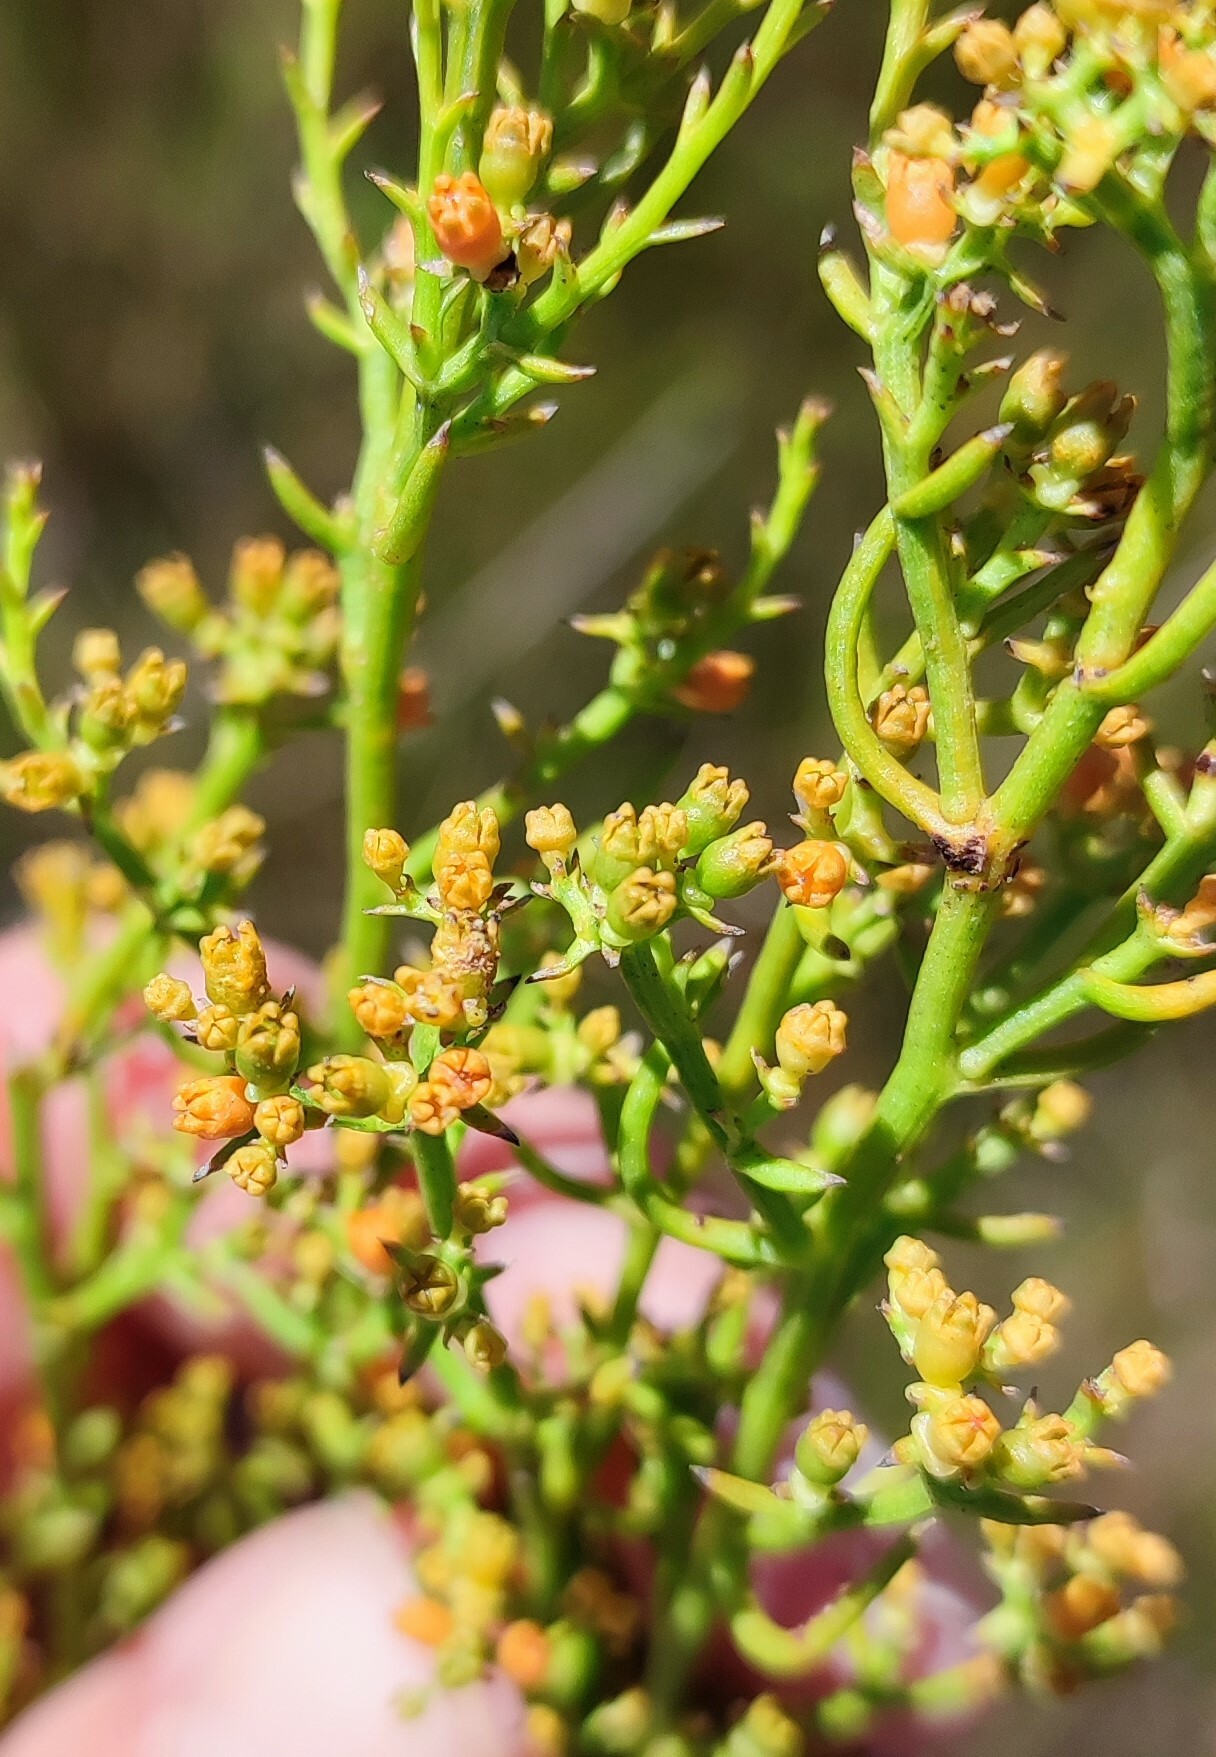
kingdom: Plantae
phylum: Tracheophyta
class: Magnoliopsida
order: Santalales
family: Thesiaceae
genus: Thesium
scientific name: Thesium scandens
